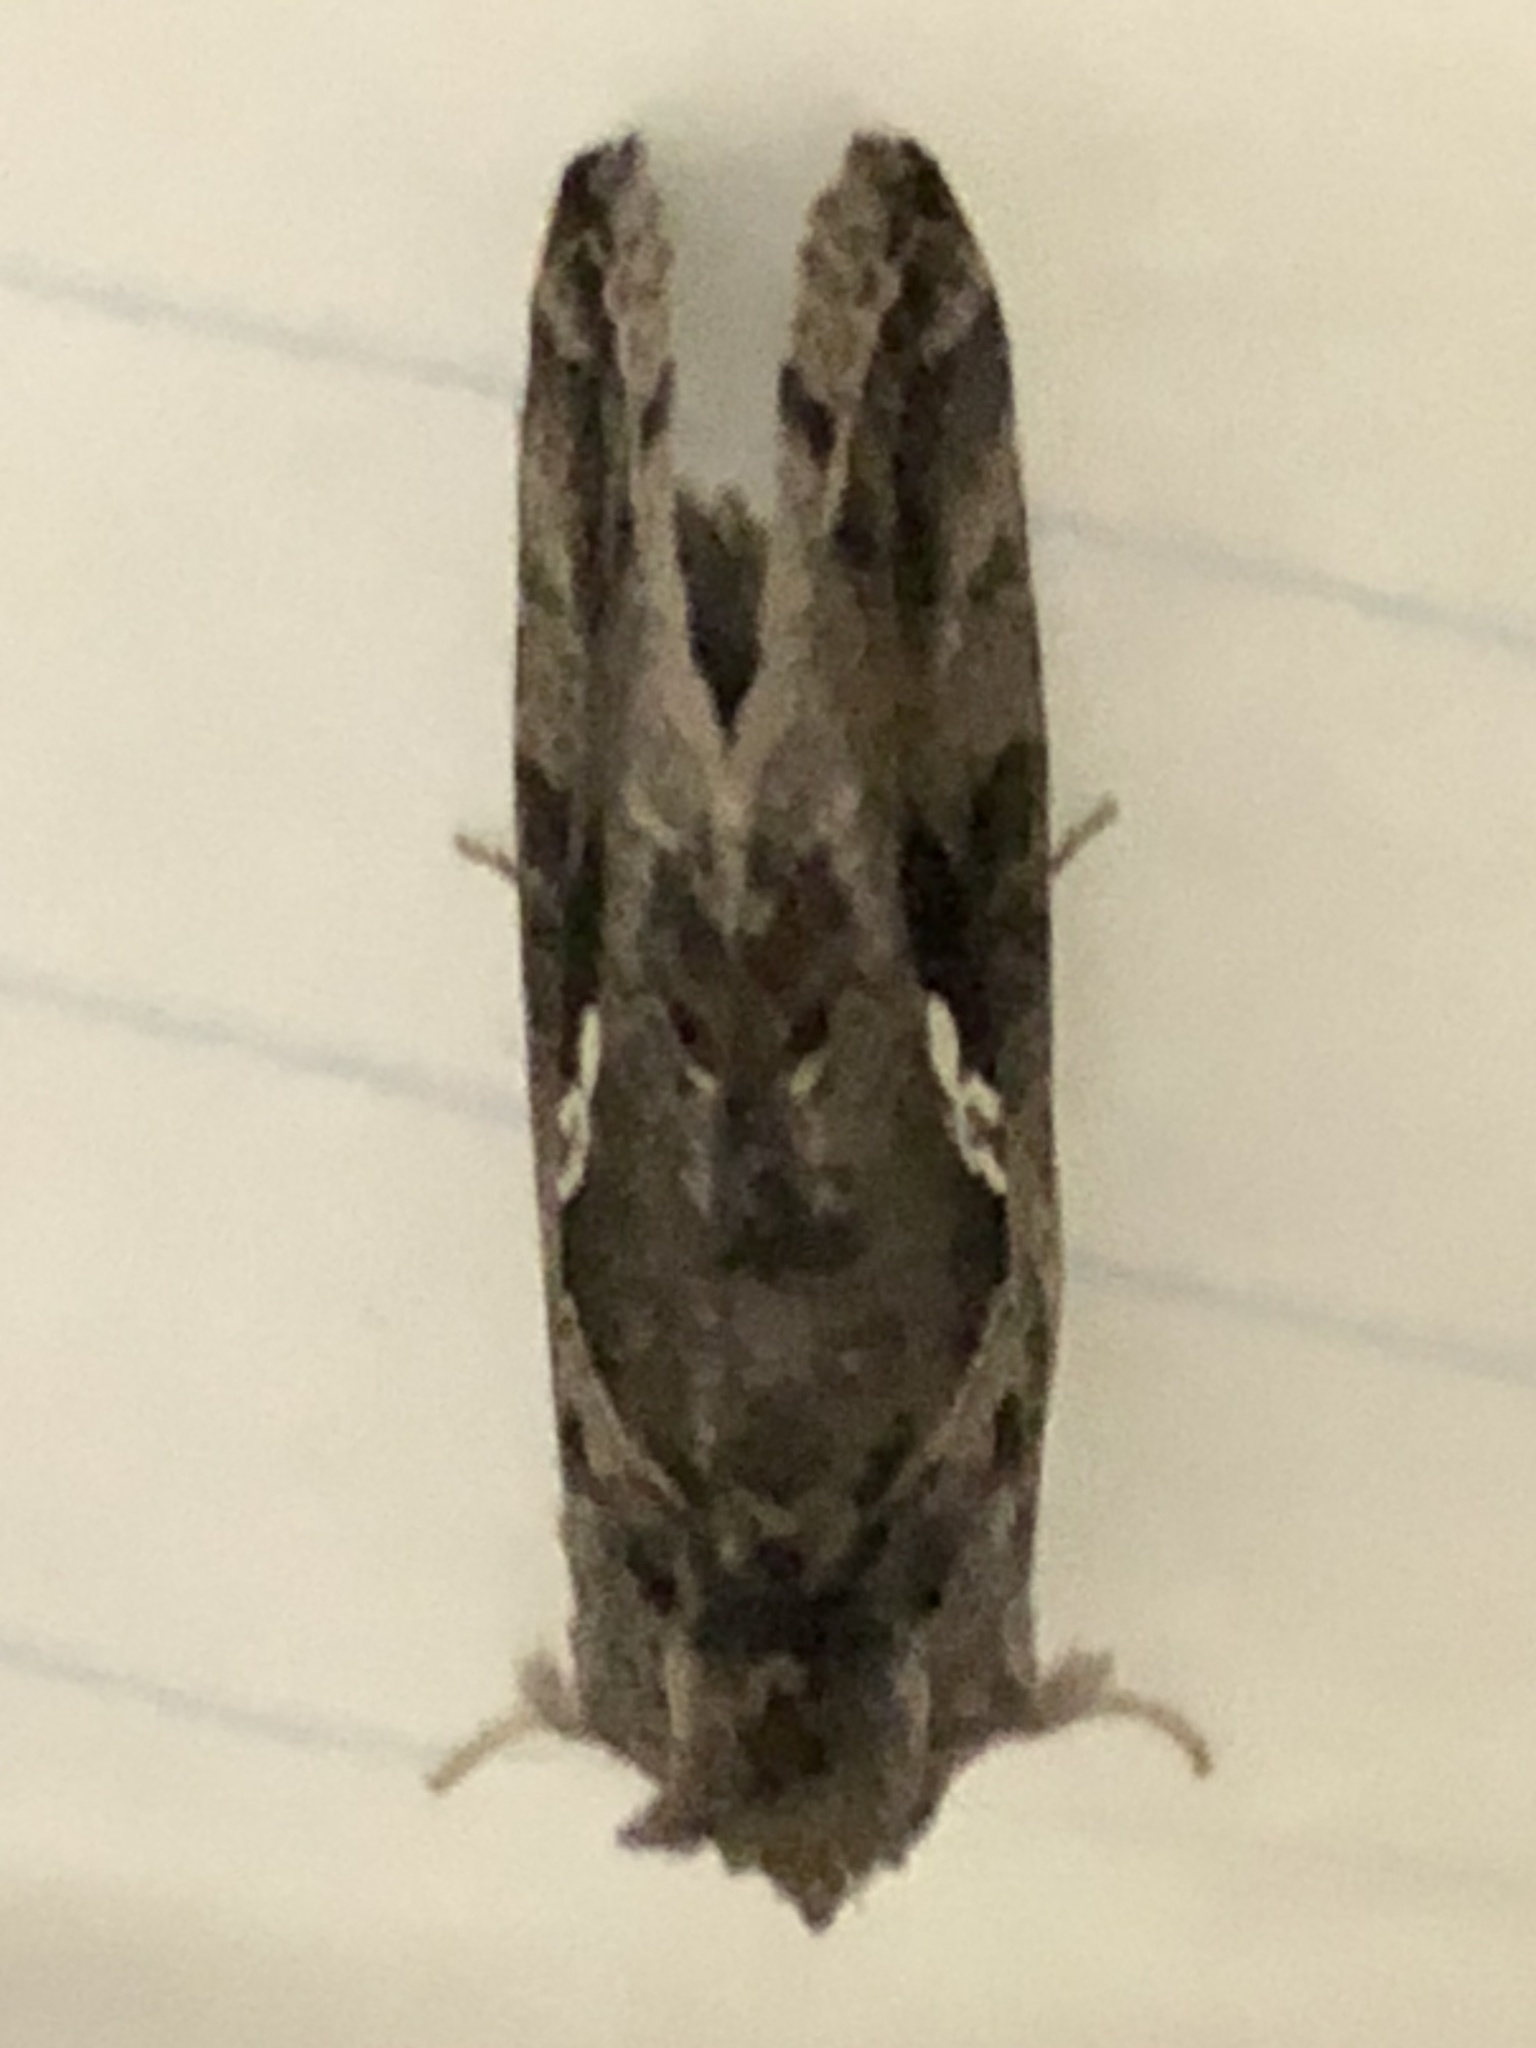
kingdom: Animalia
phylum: Arthropoda
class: Insecta
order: Lepidoptera
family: Noctuidae
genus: Chrysodeixis
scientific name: Chrysodeixis includens
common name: Cutworm moth
